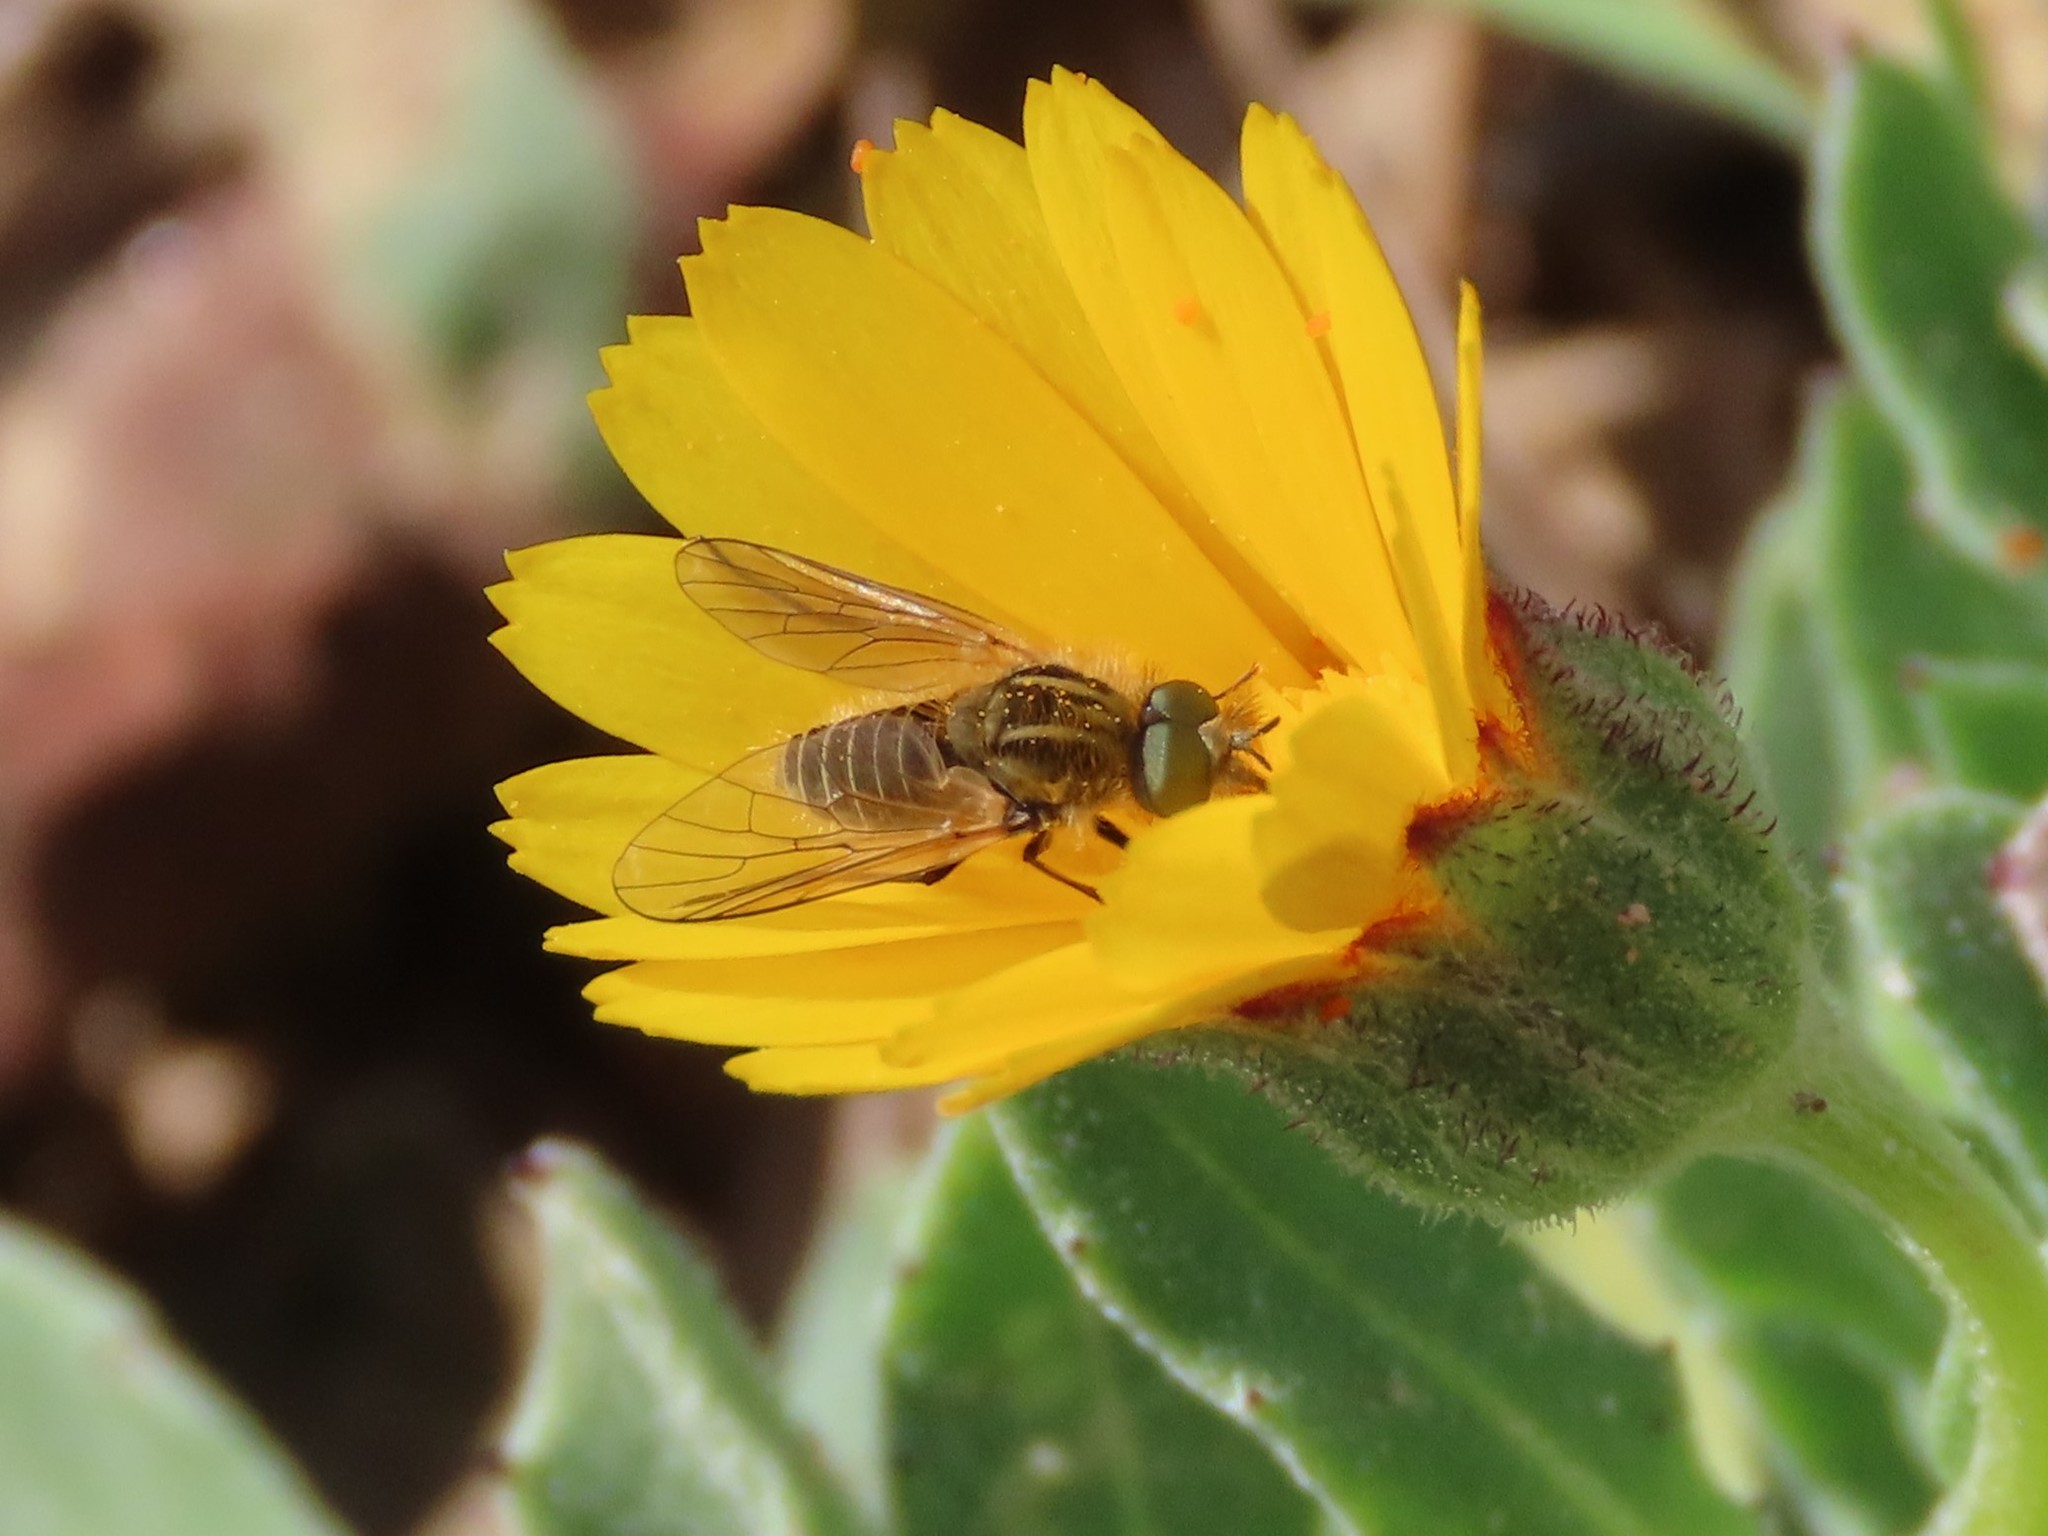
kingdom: Animalia
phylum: Arthropoda
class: Insecta
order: Diptera
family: Bombyliidae
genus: Protypusia
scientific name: Protypusia grata
